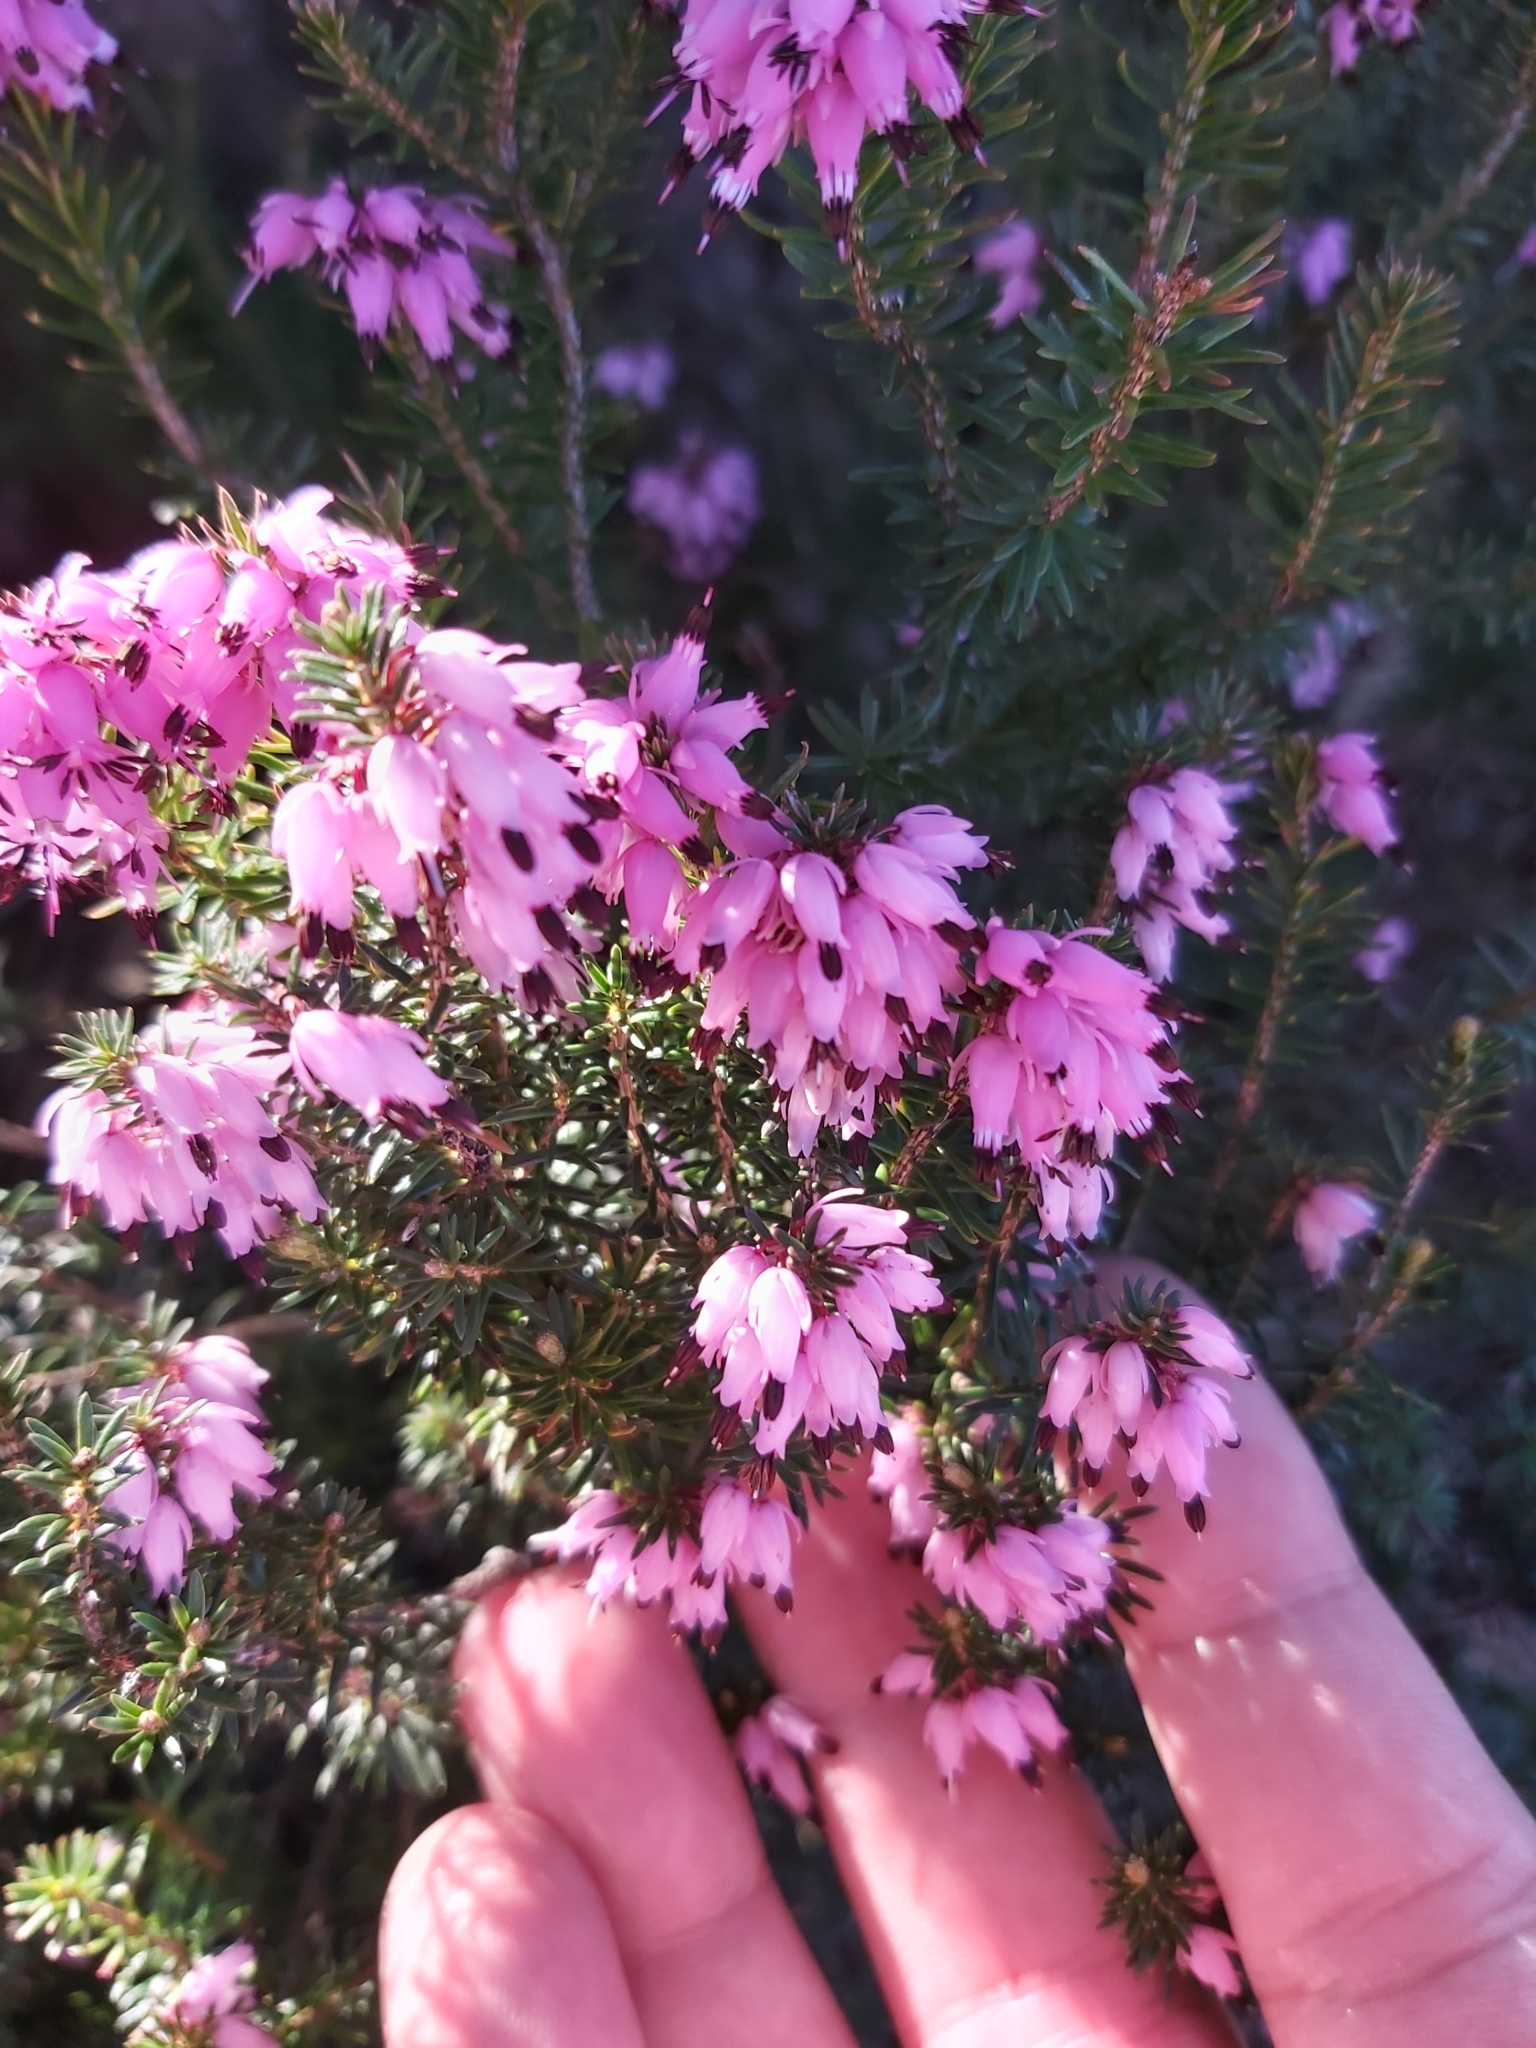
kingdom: Plantae
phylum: Tracheophyta
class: Magnoliopsida
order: Ericales
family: Ericaceae
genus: Erica
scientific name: Erica carnea
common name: Winter heath
